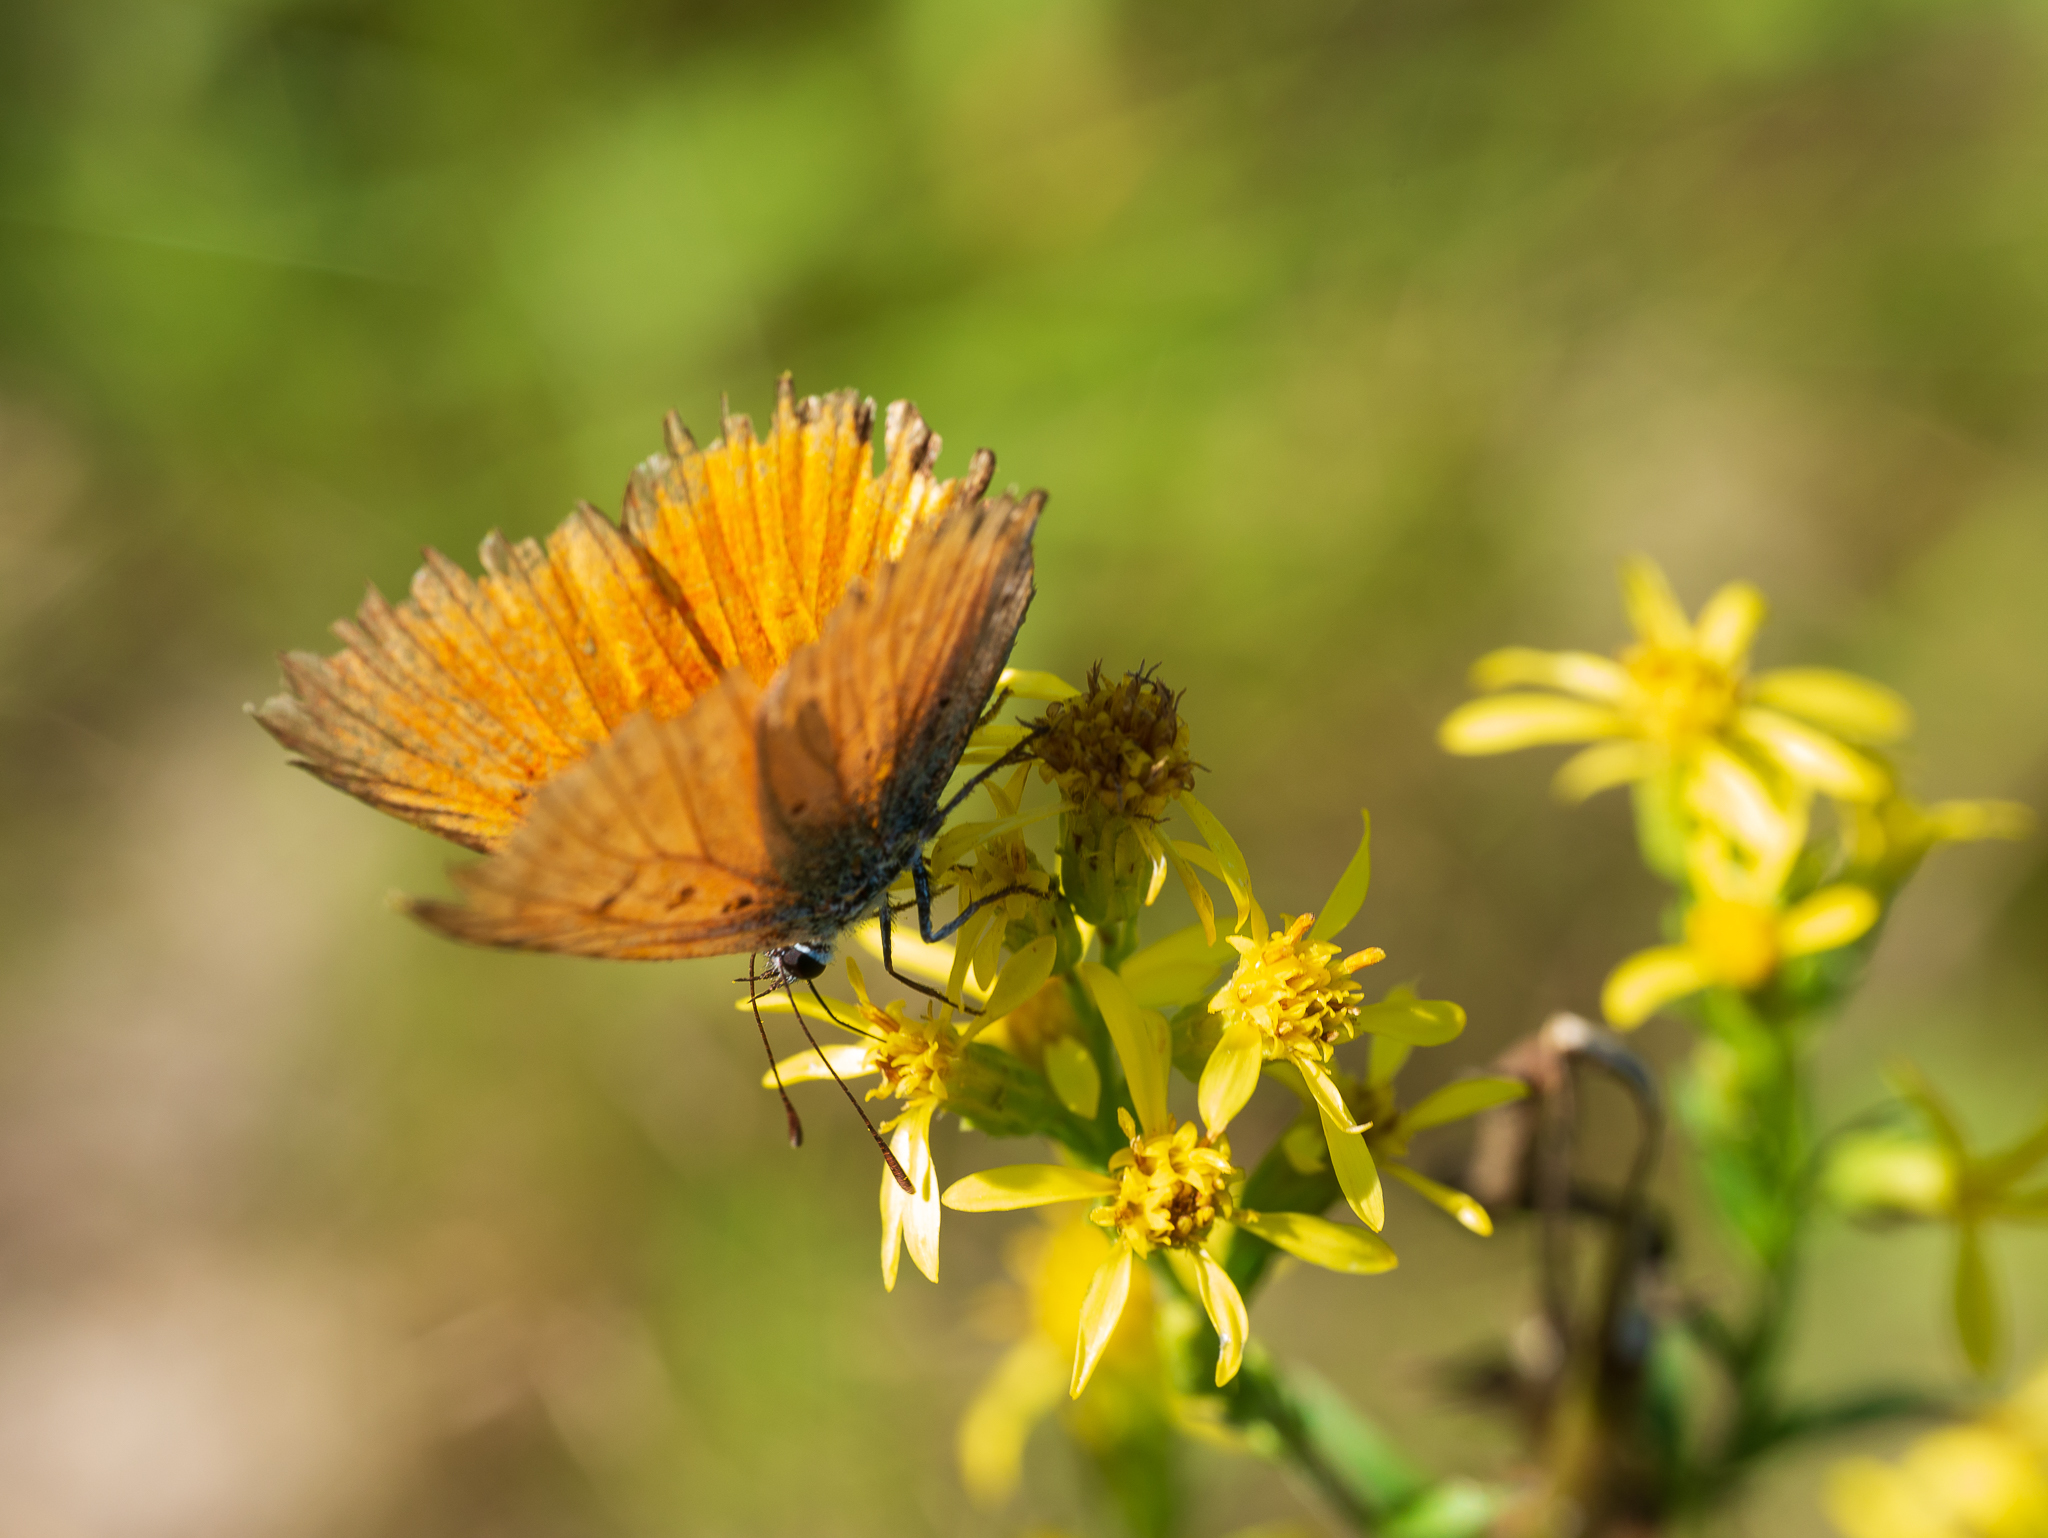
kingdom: Animalia
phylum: Arthropoda
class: Insecta
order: Lepidoptera
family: Lycaenidae
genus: Lycaena
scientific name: Lycaena virgaureae
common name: Scarce copper
